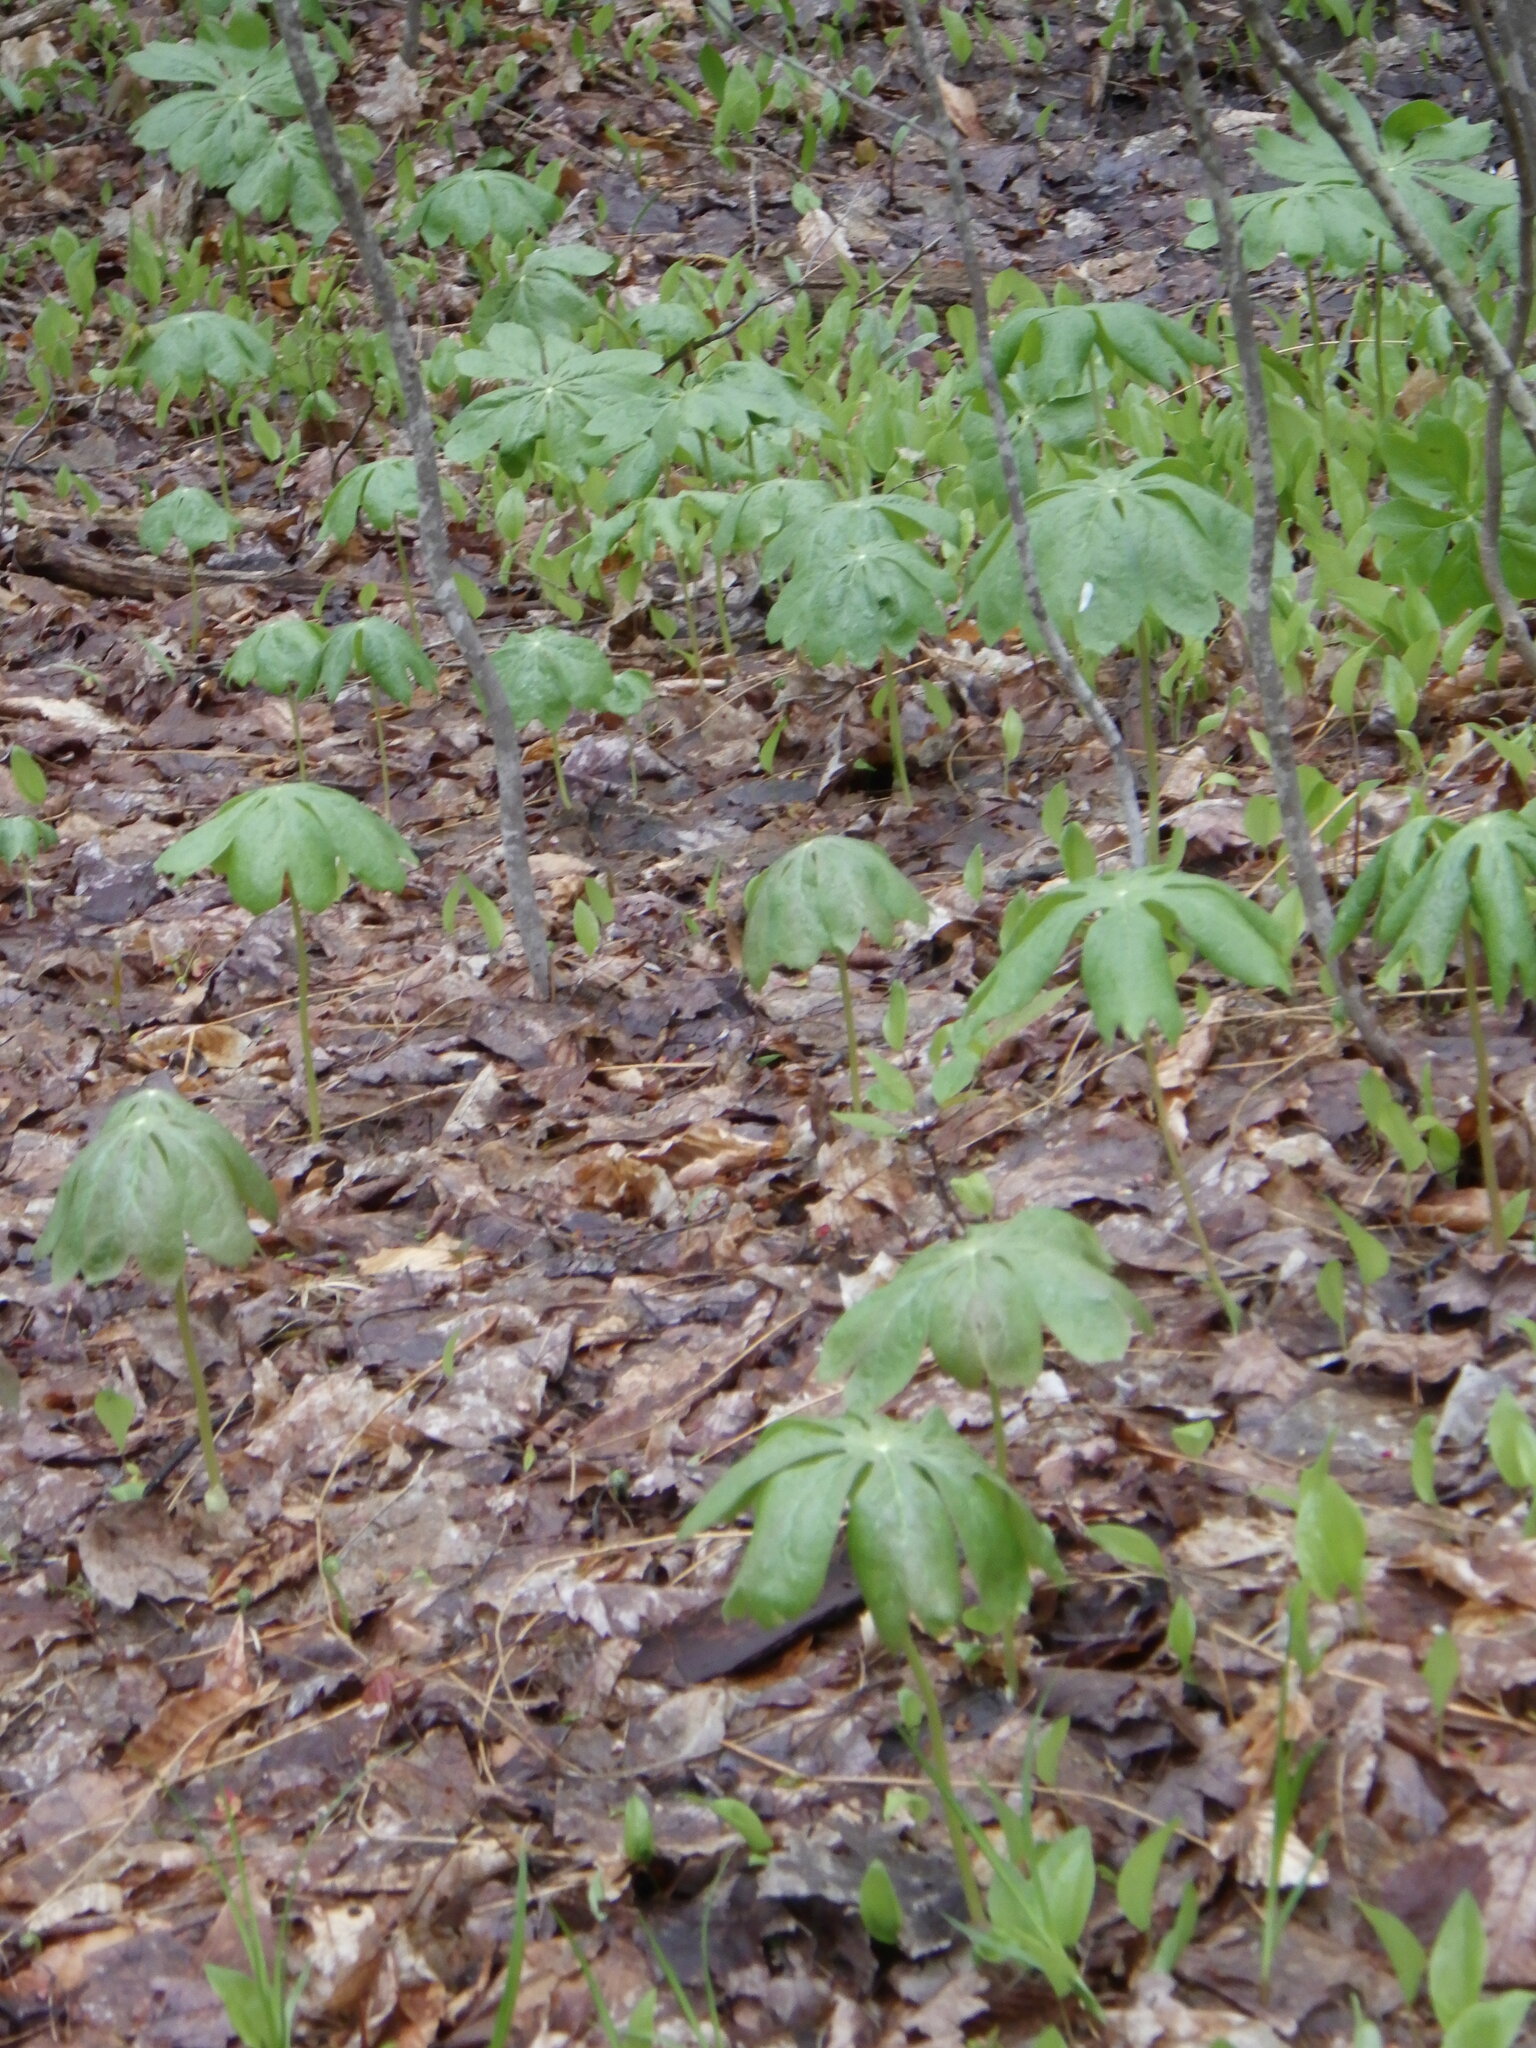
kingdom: Plantae
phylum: Tracheophyta
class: Magnoliopsida
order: Ranunculales
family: Berberidaceae
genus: Podophyllum
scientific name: Podophyllum peltatum
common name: Wild mandrake
